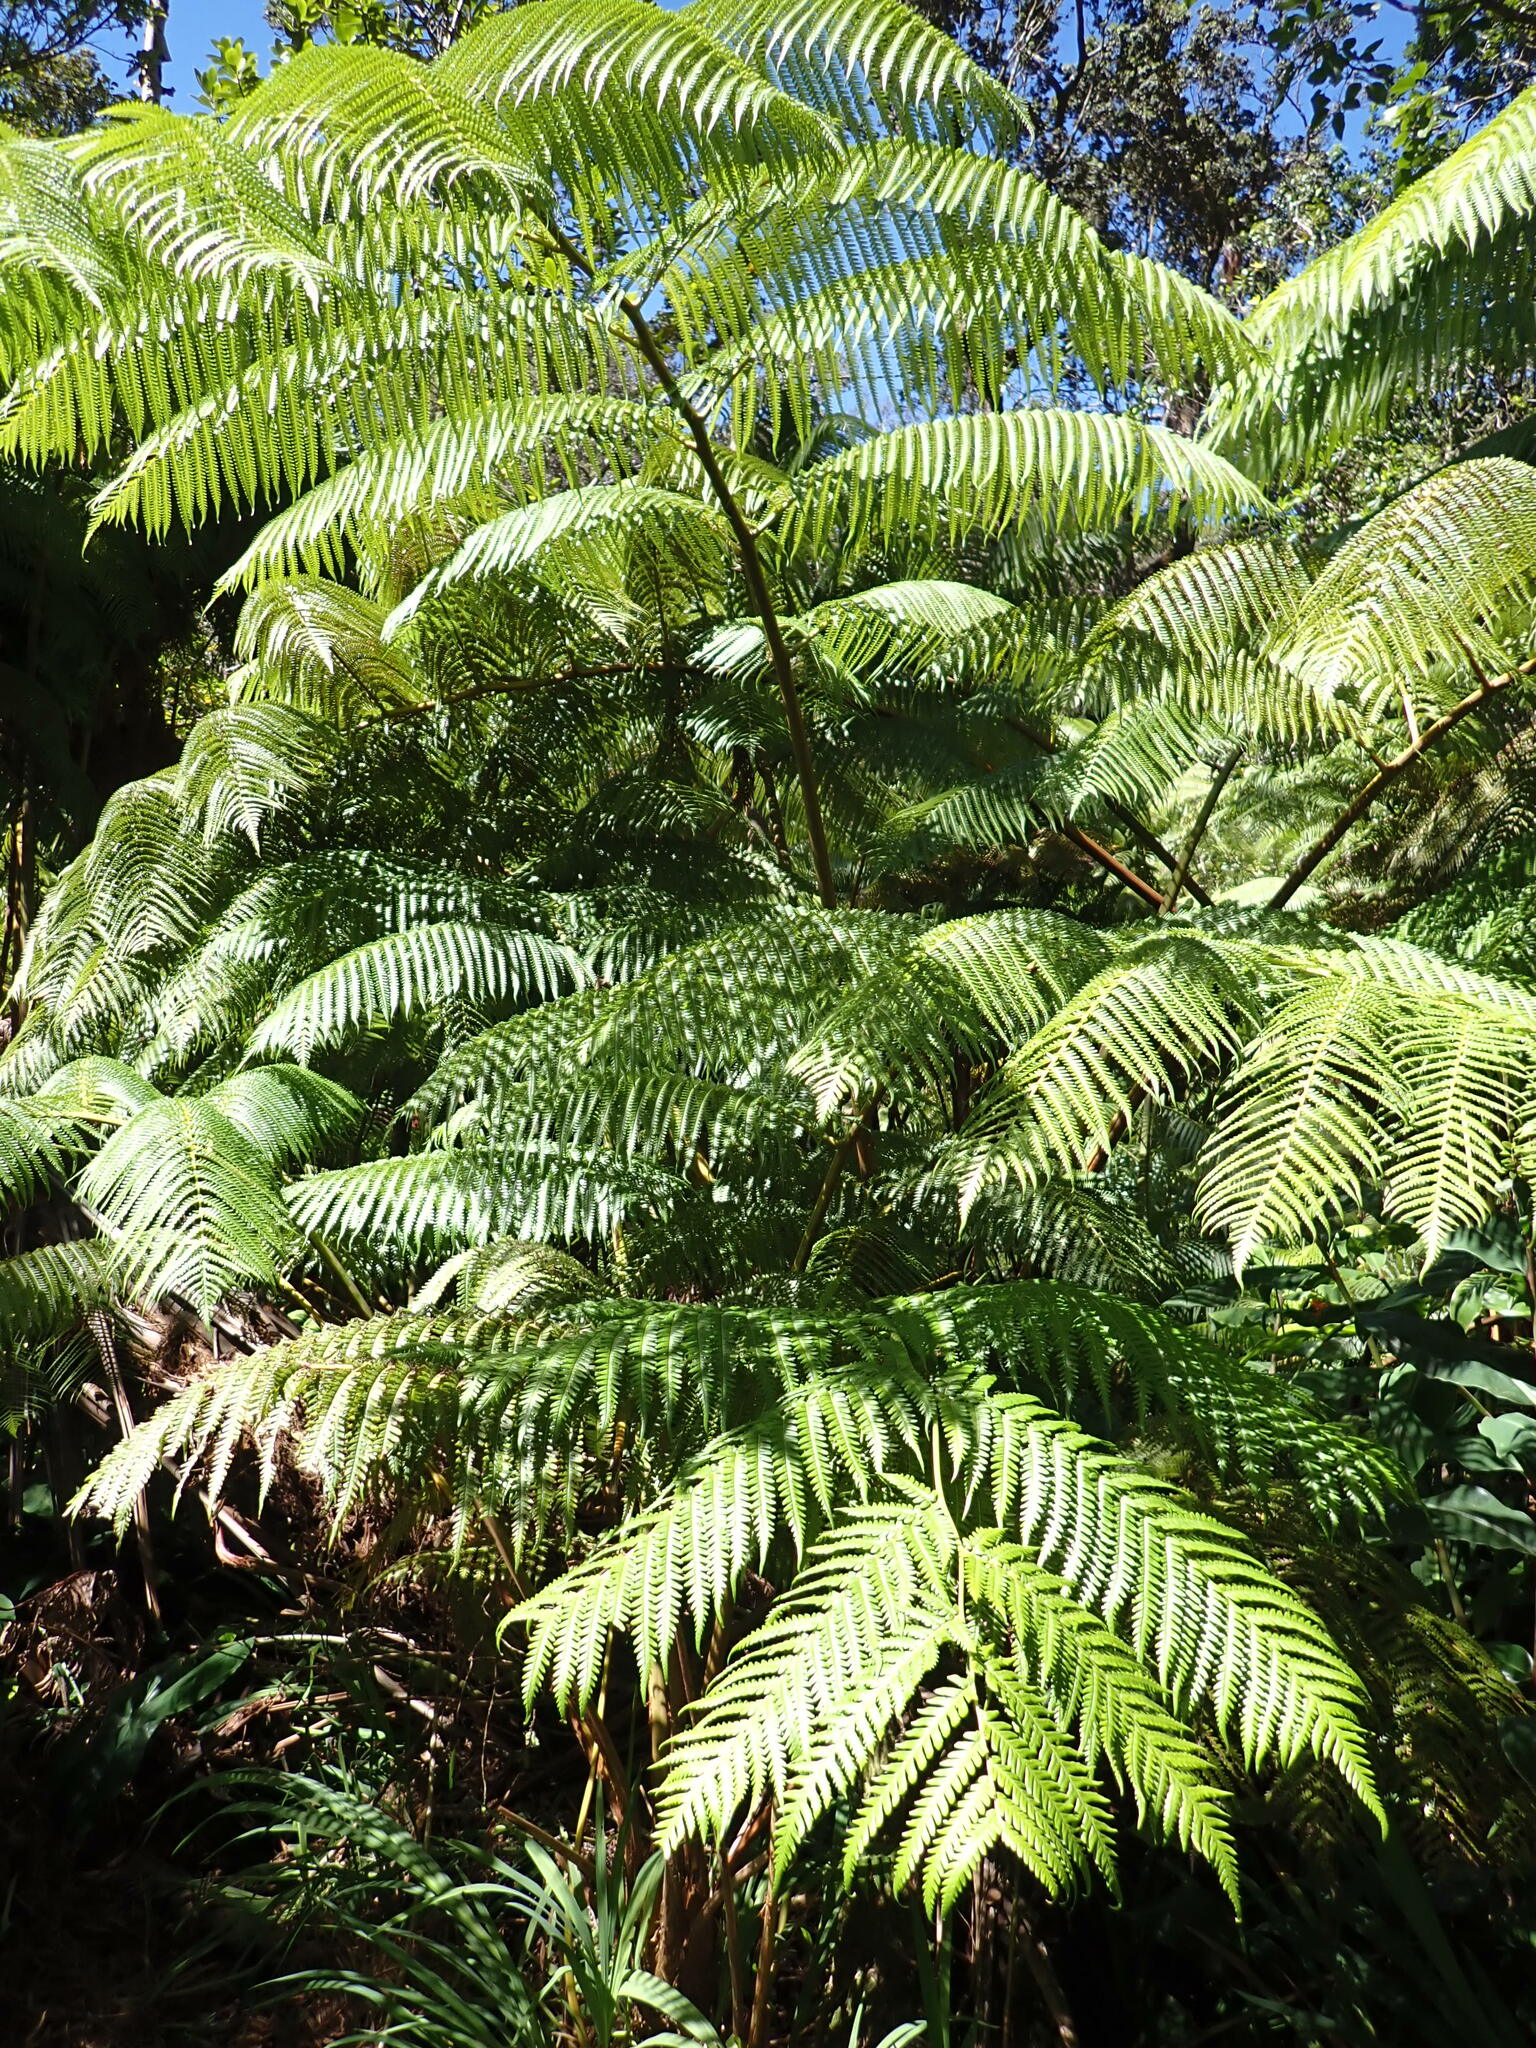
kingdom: Plantae
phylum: Tracheophyta
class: Polypodiopsida
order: Cyatheales
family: Cibotiaceae
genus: Cibotium
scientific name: Cibotium glaucum
